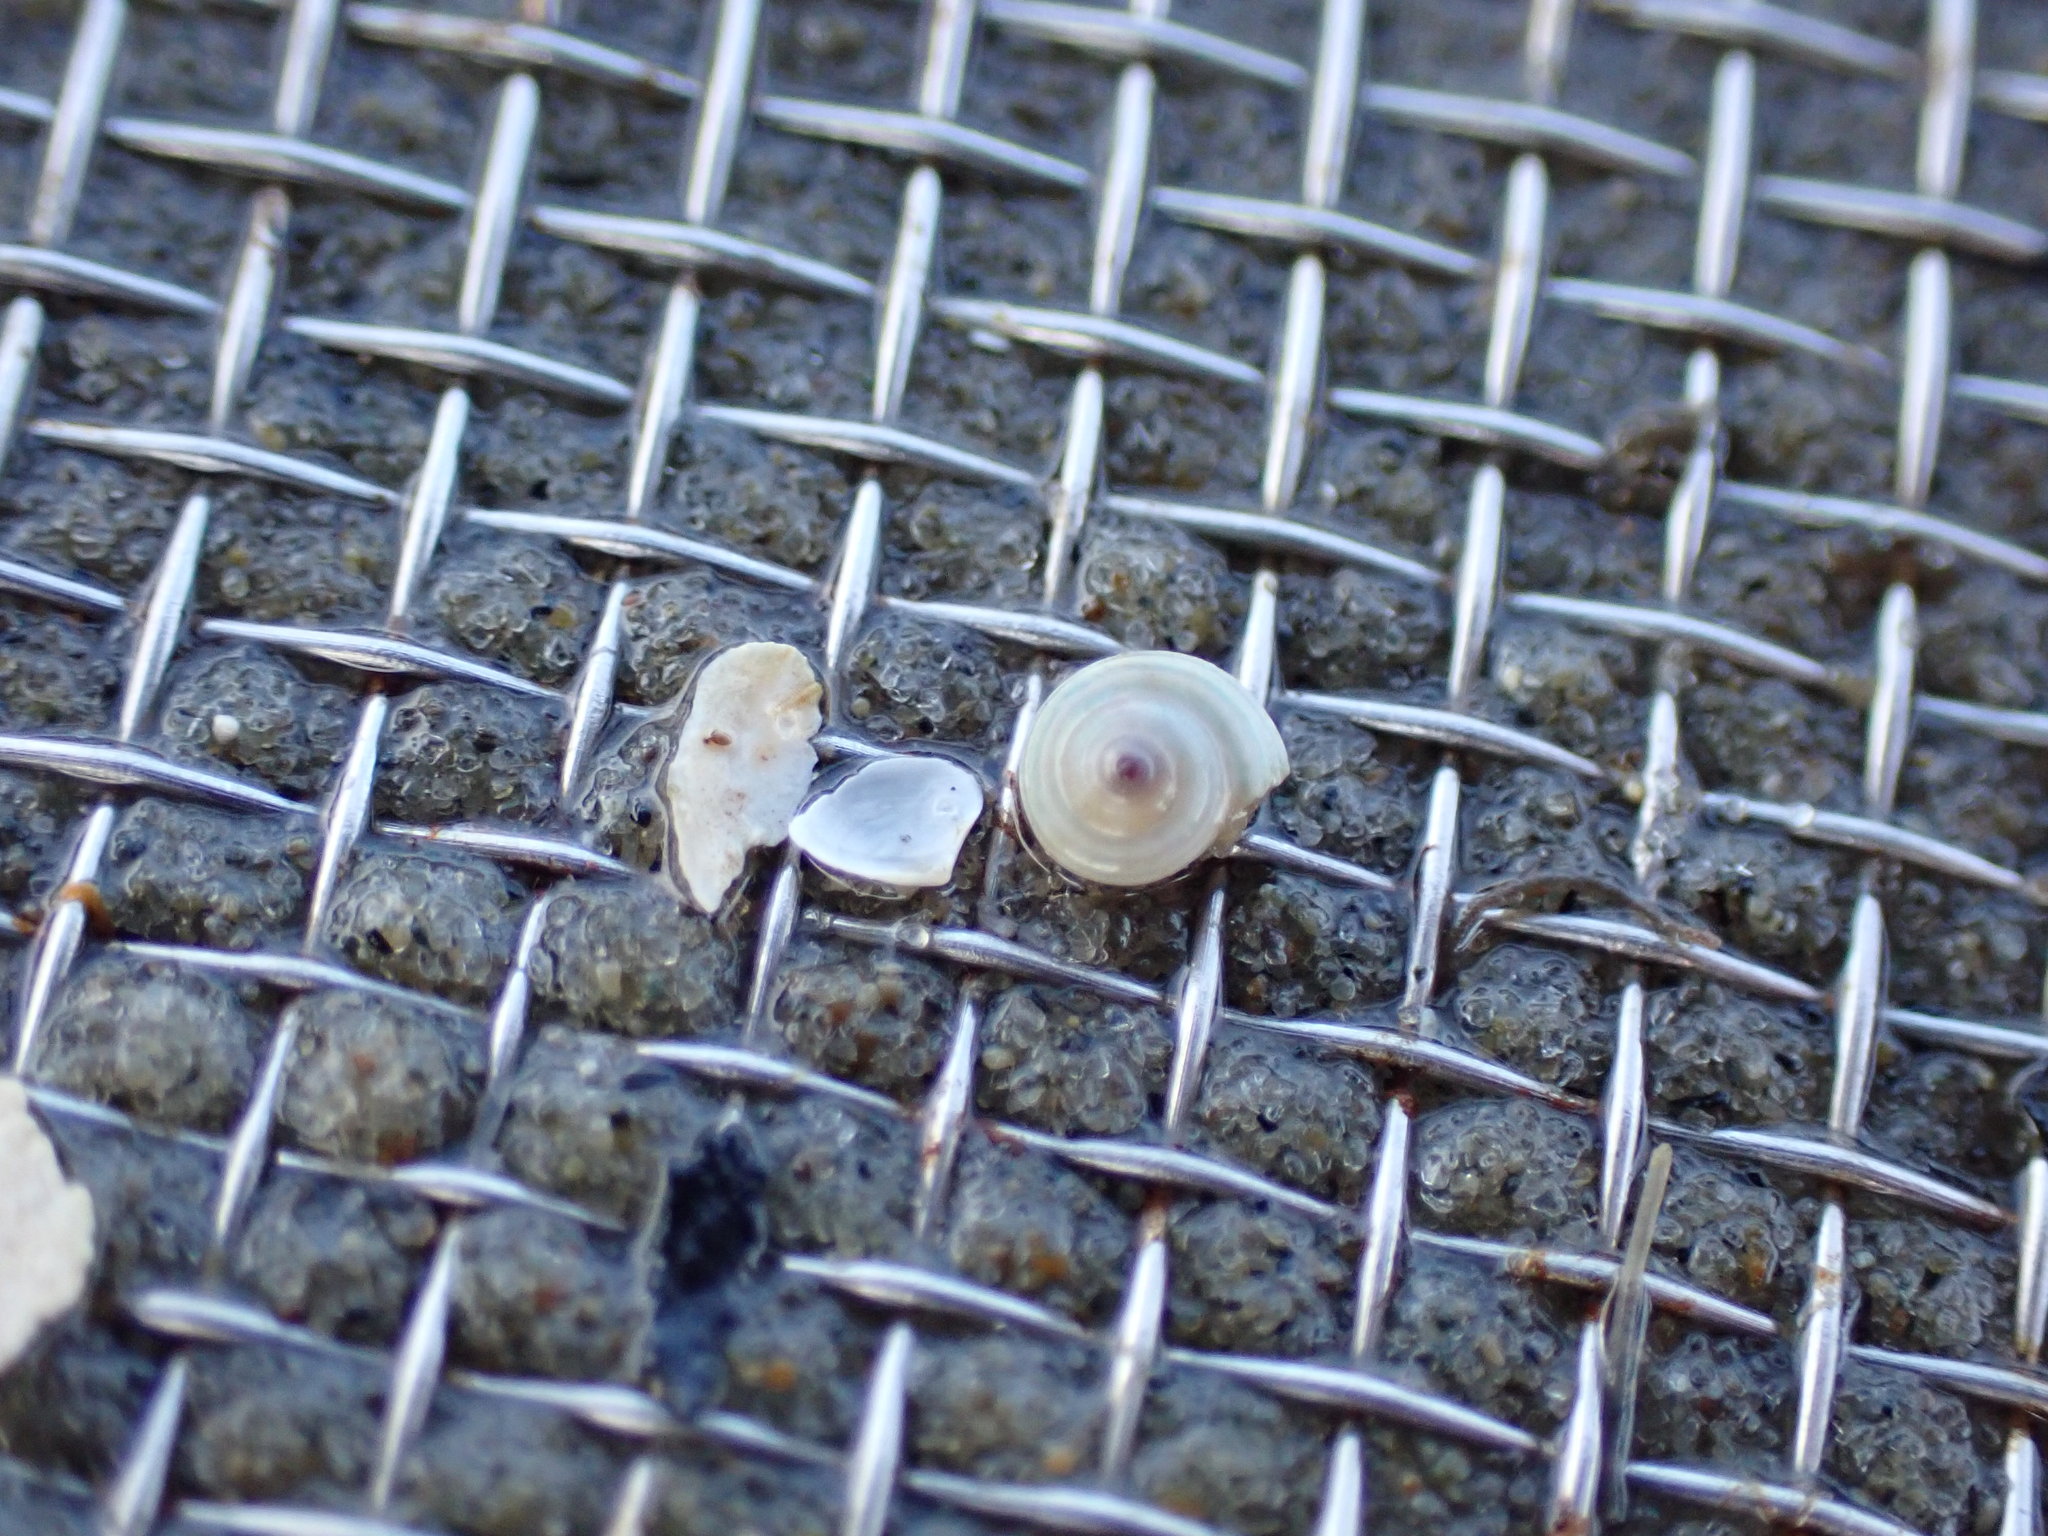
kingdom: Animalia
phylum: Mollusca
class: Gastropoda
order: Trochida
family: Trochidae
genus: Antisolarium
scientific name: Antisolarium egenum
